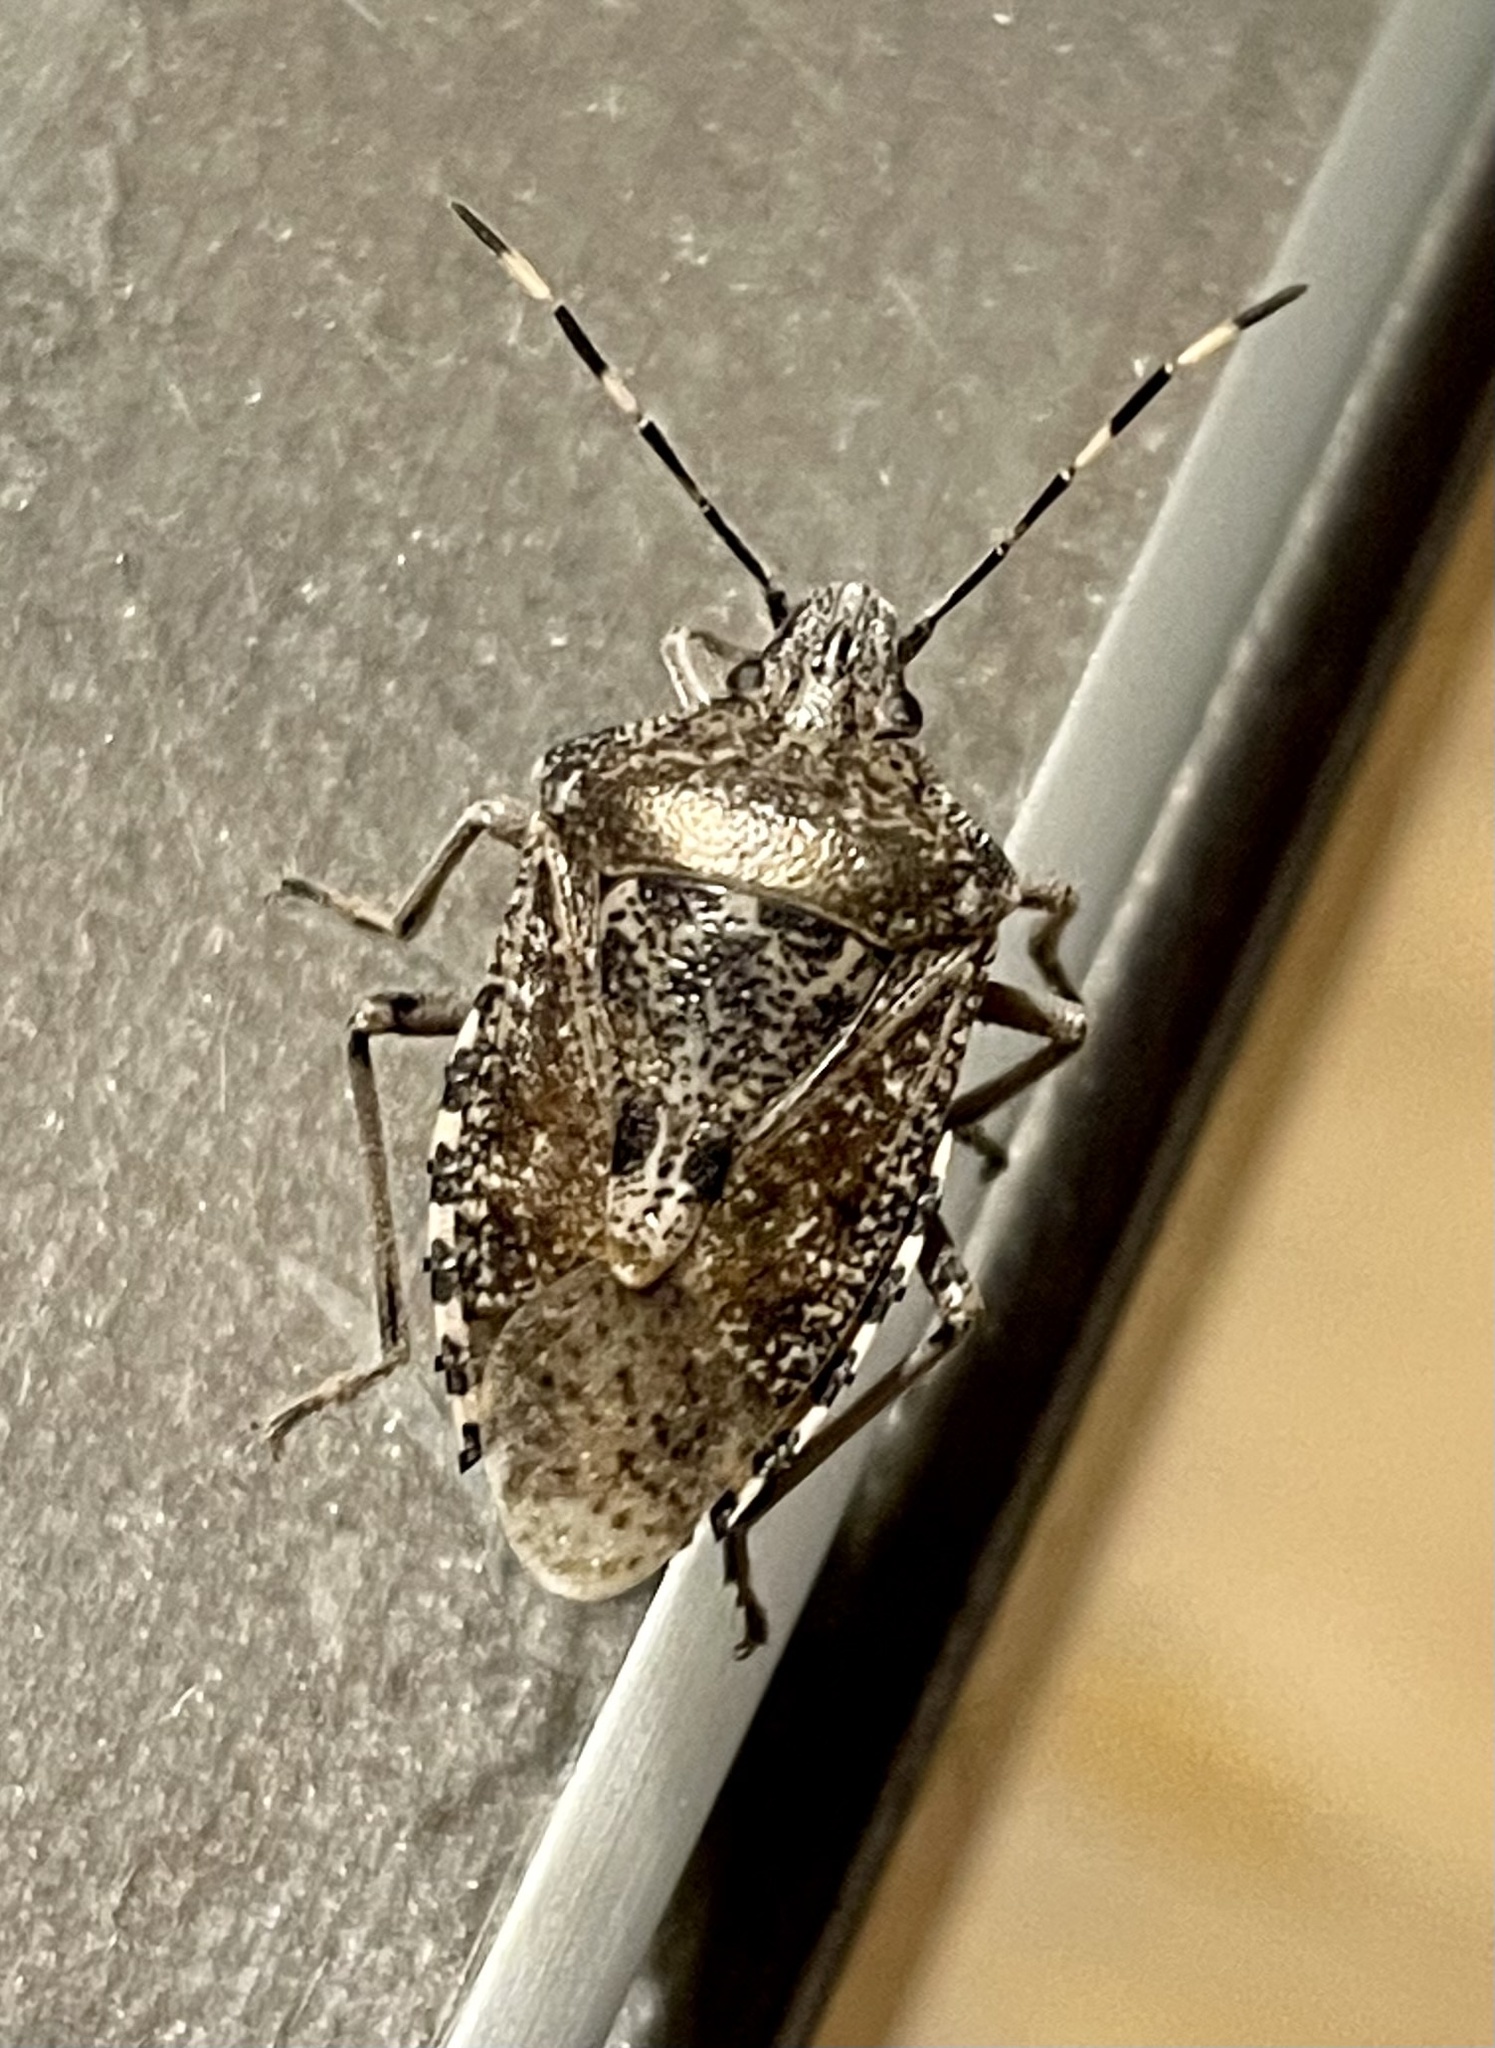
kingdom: Animalia
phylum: Arthropoda
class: Insecta
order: Hemiptera
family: Pentatomidae
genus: Rhaphigaster
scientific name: Rhaphigaster nebulosa
